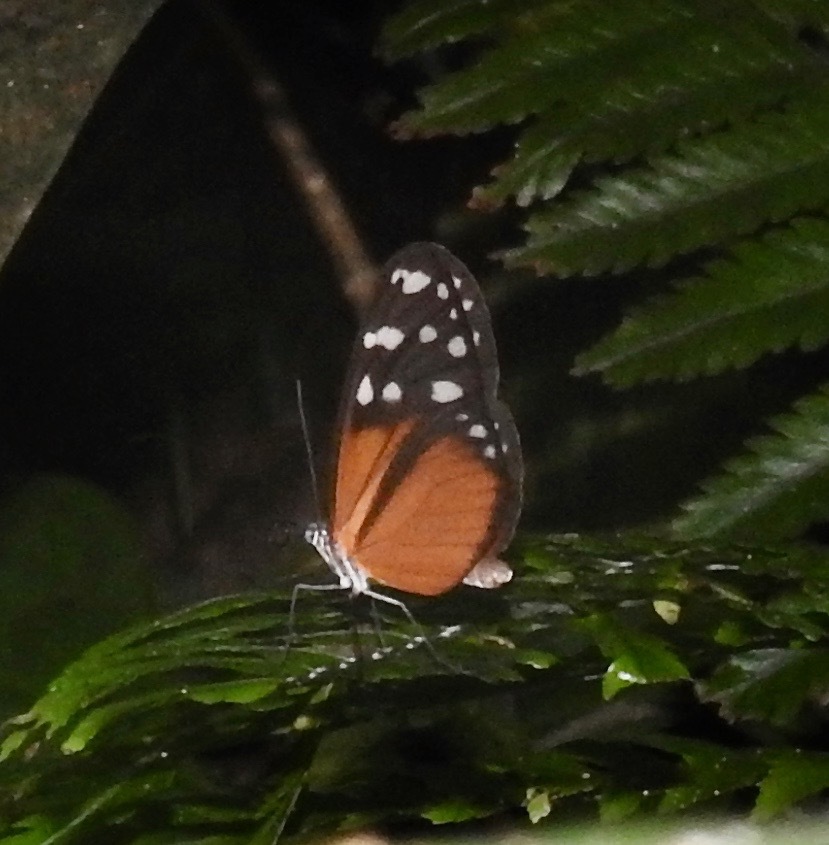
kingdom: Animalia
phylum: Arthropoda
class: Insecta
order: Lepidoptera
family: Nymphalidae
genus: Hyposcada
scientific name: Hyposcada virginiana
